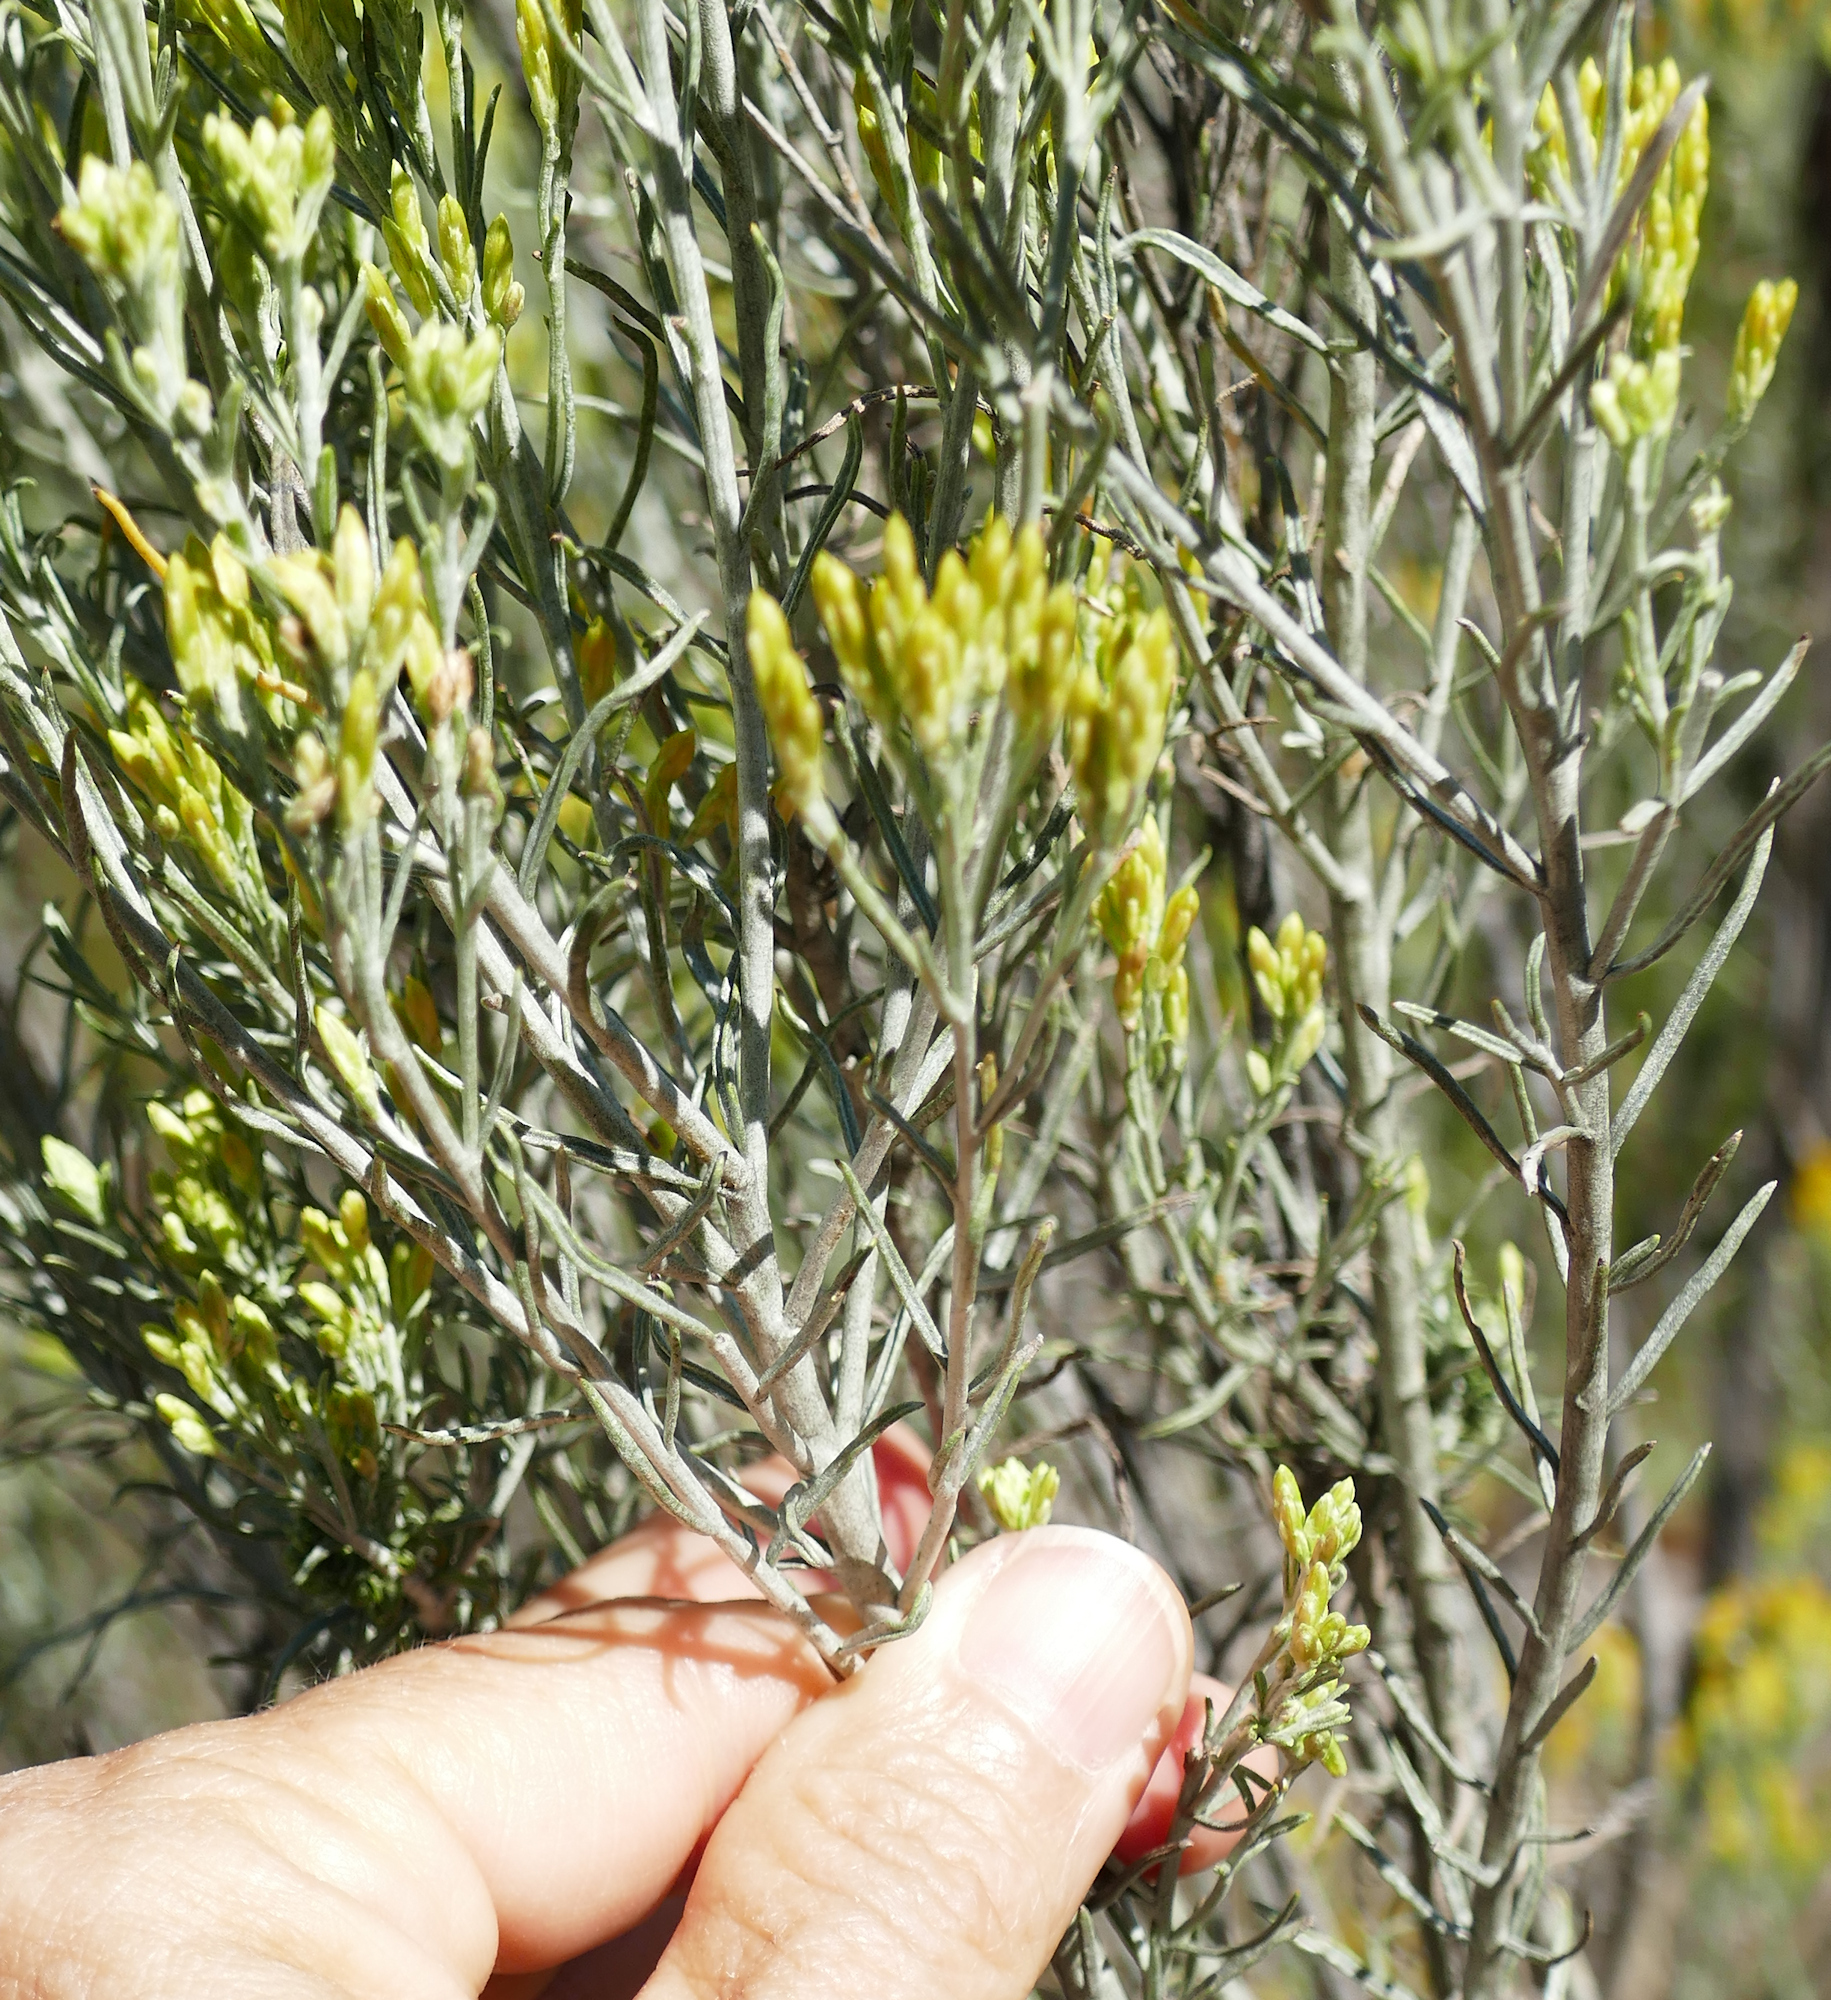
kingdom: Plantae
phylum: Tracheophyta
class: Magnoliopsida
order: Asterales
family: Asteraceae
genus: Ericameria
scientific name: Ericameria nauseosa
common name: Rubber rabbitbrush
